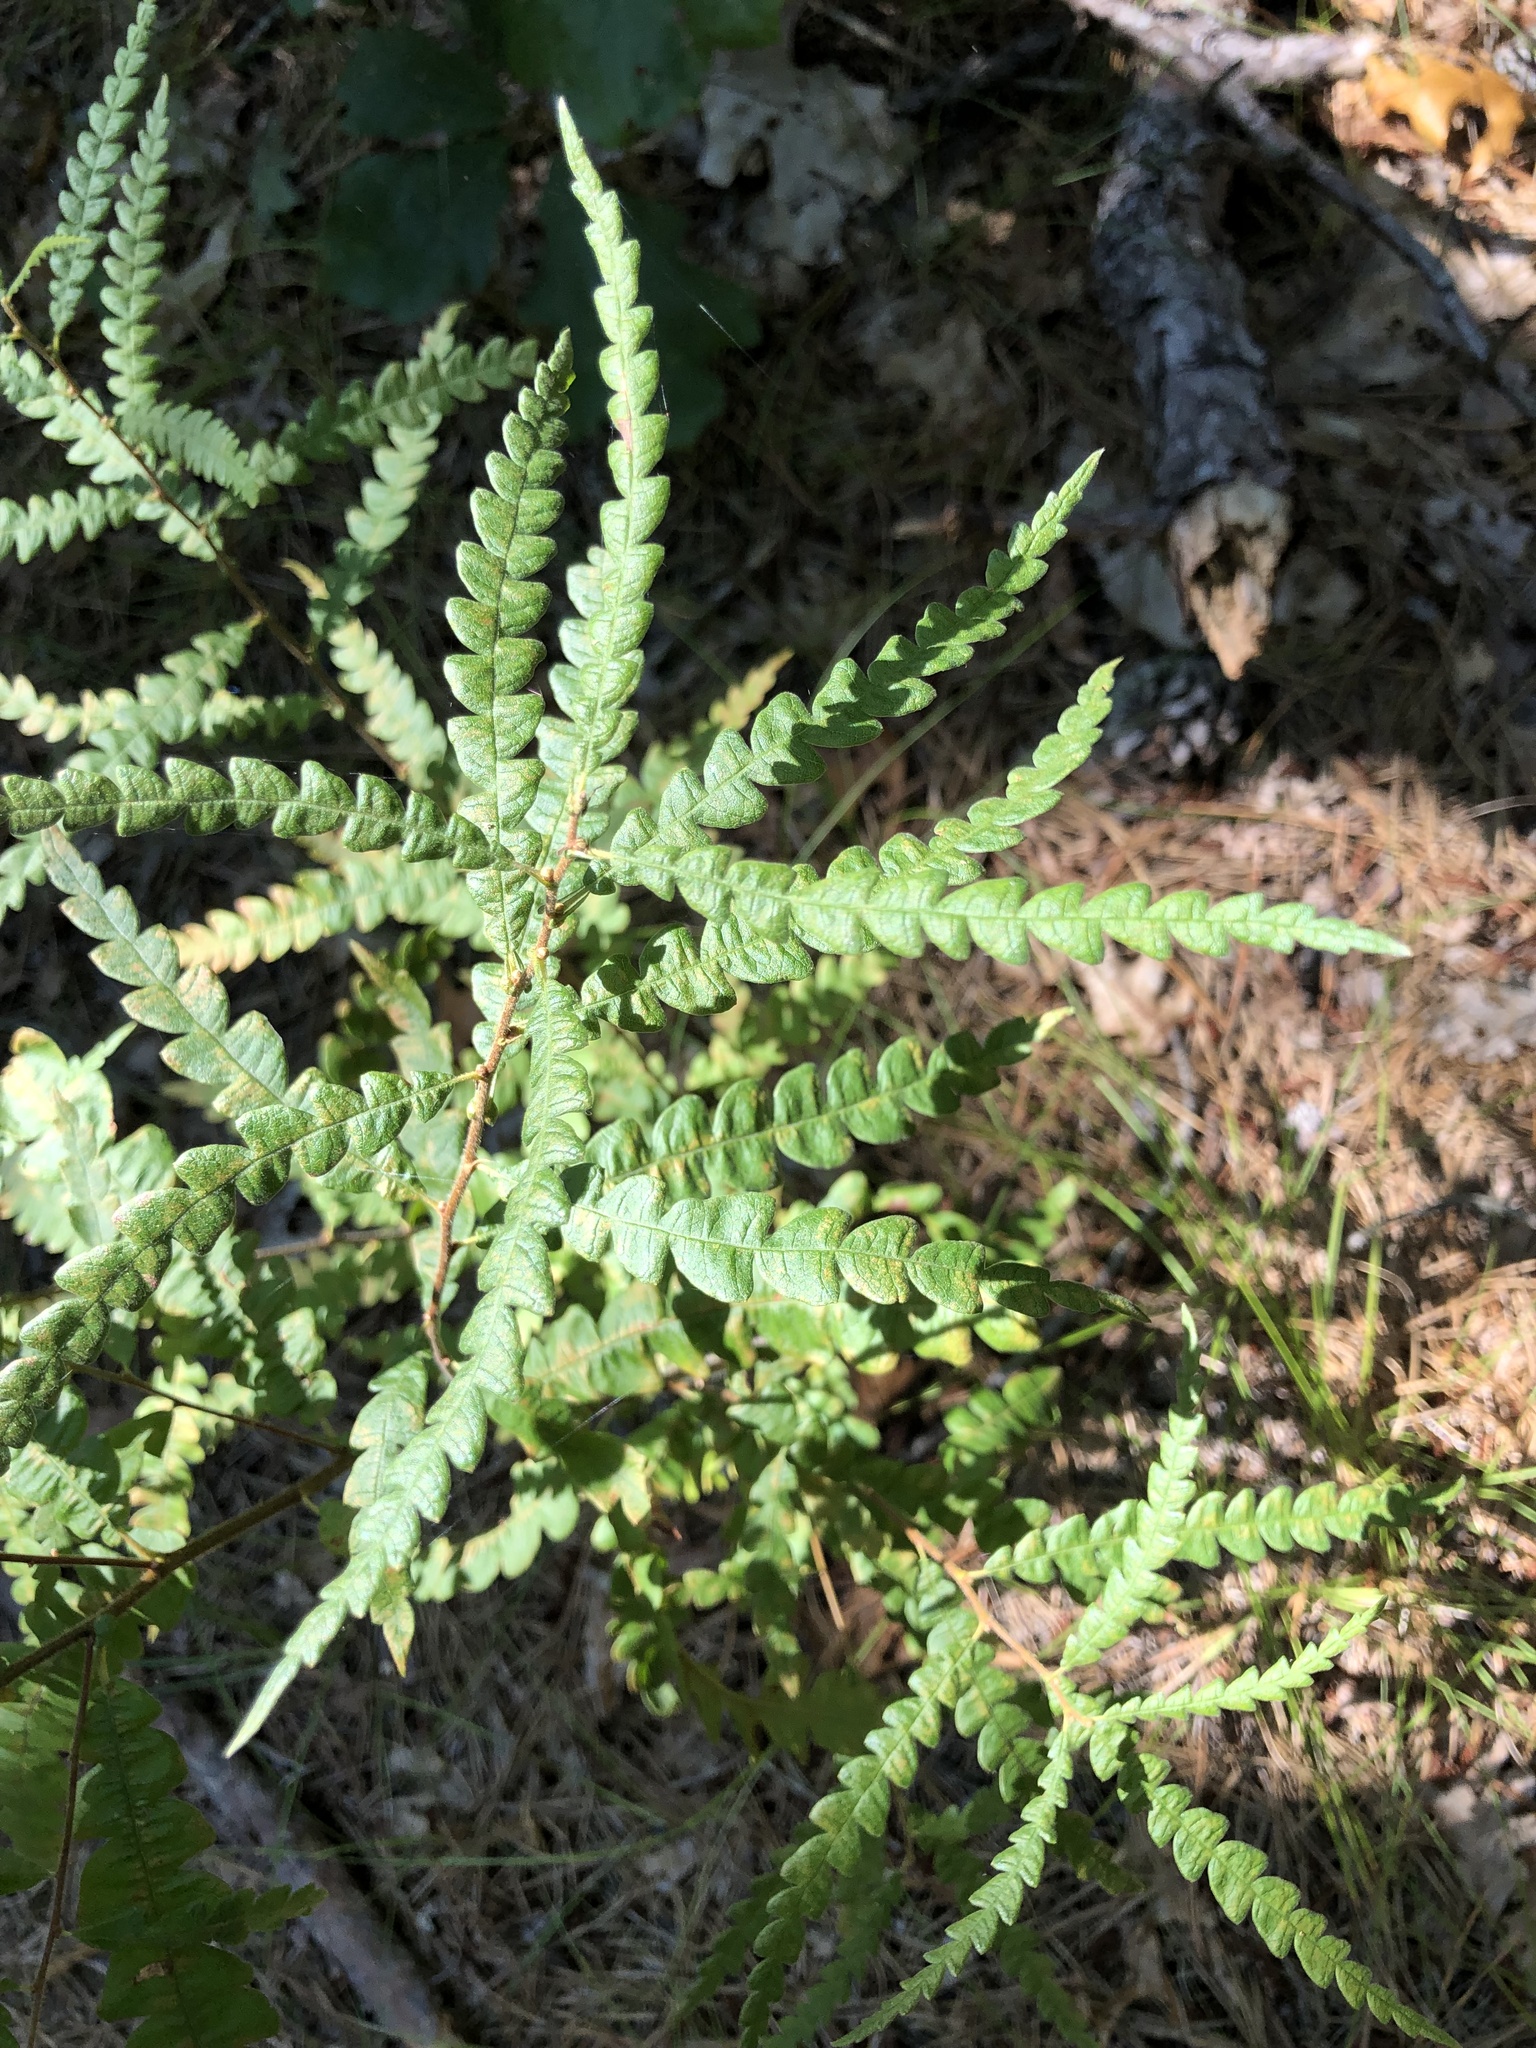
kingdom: Plantae
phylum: Tracheophyta
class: Magnoliopsida
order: Fagales
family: Myricaceae
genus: Comptonia
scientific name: Comptonia peregrina
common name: Sweet-fern
